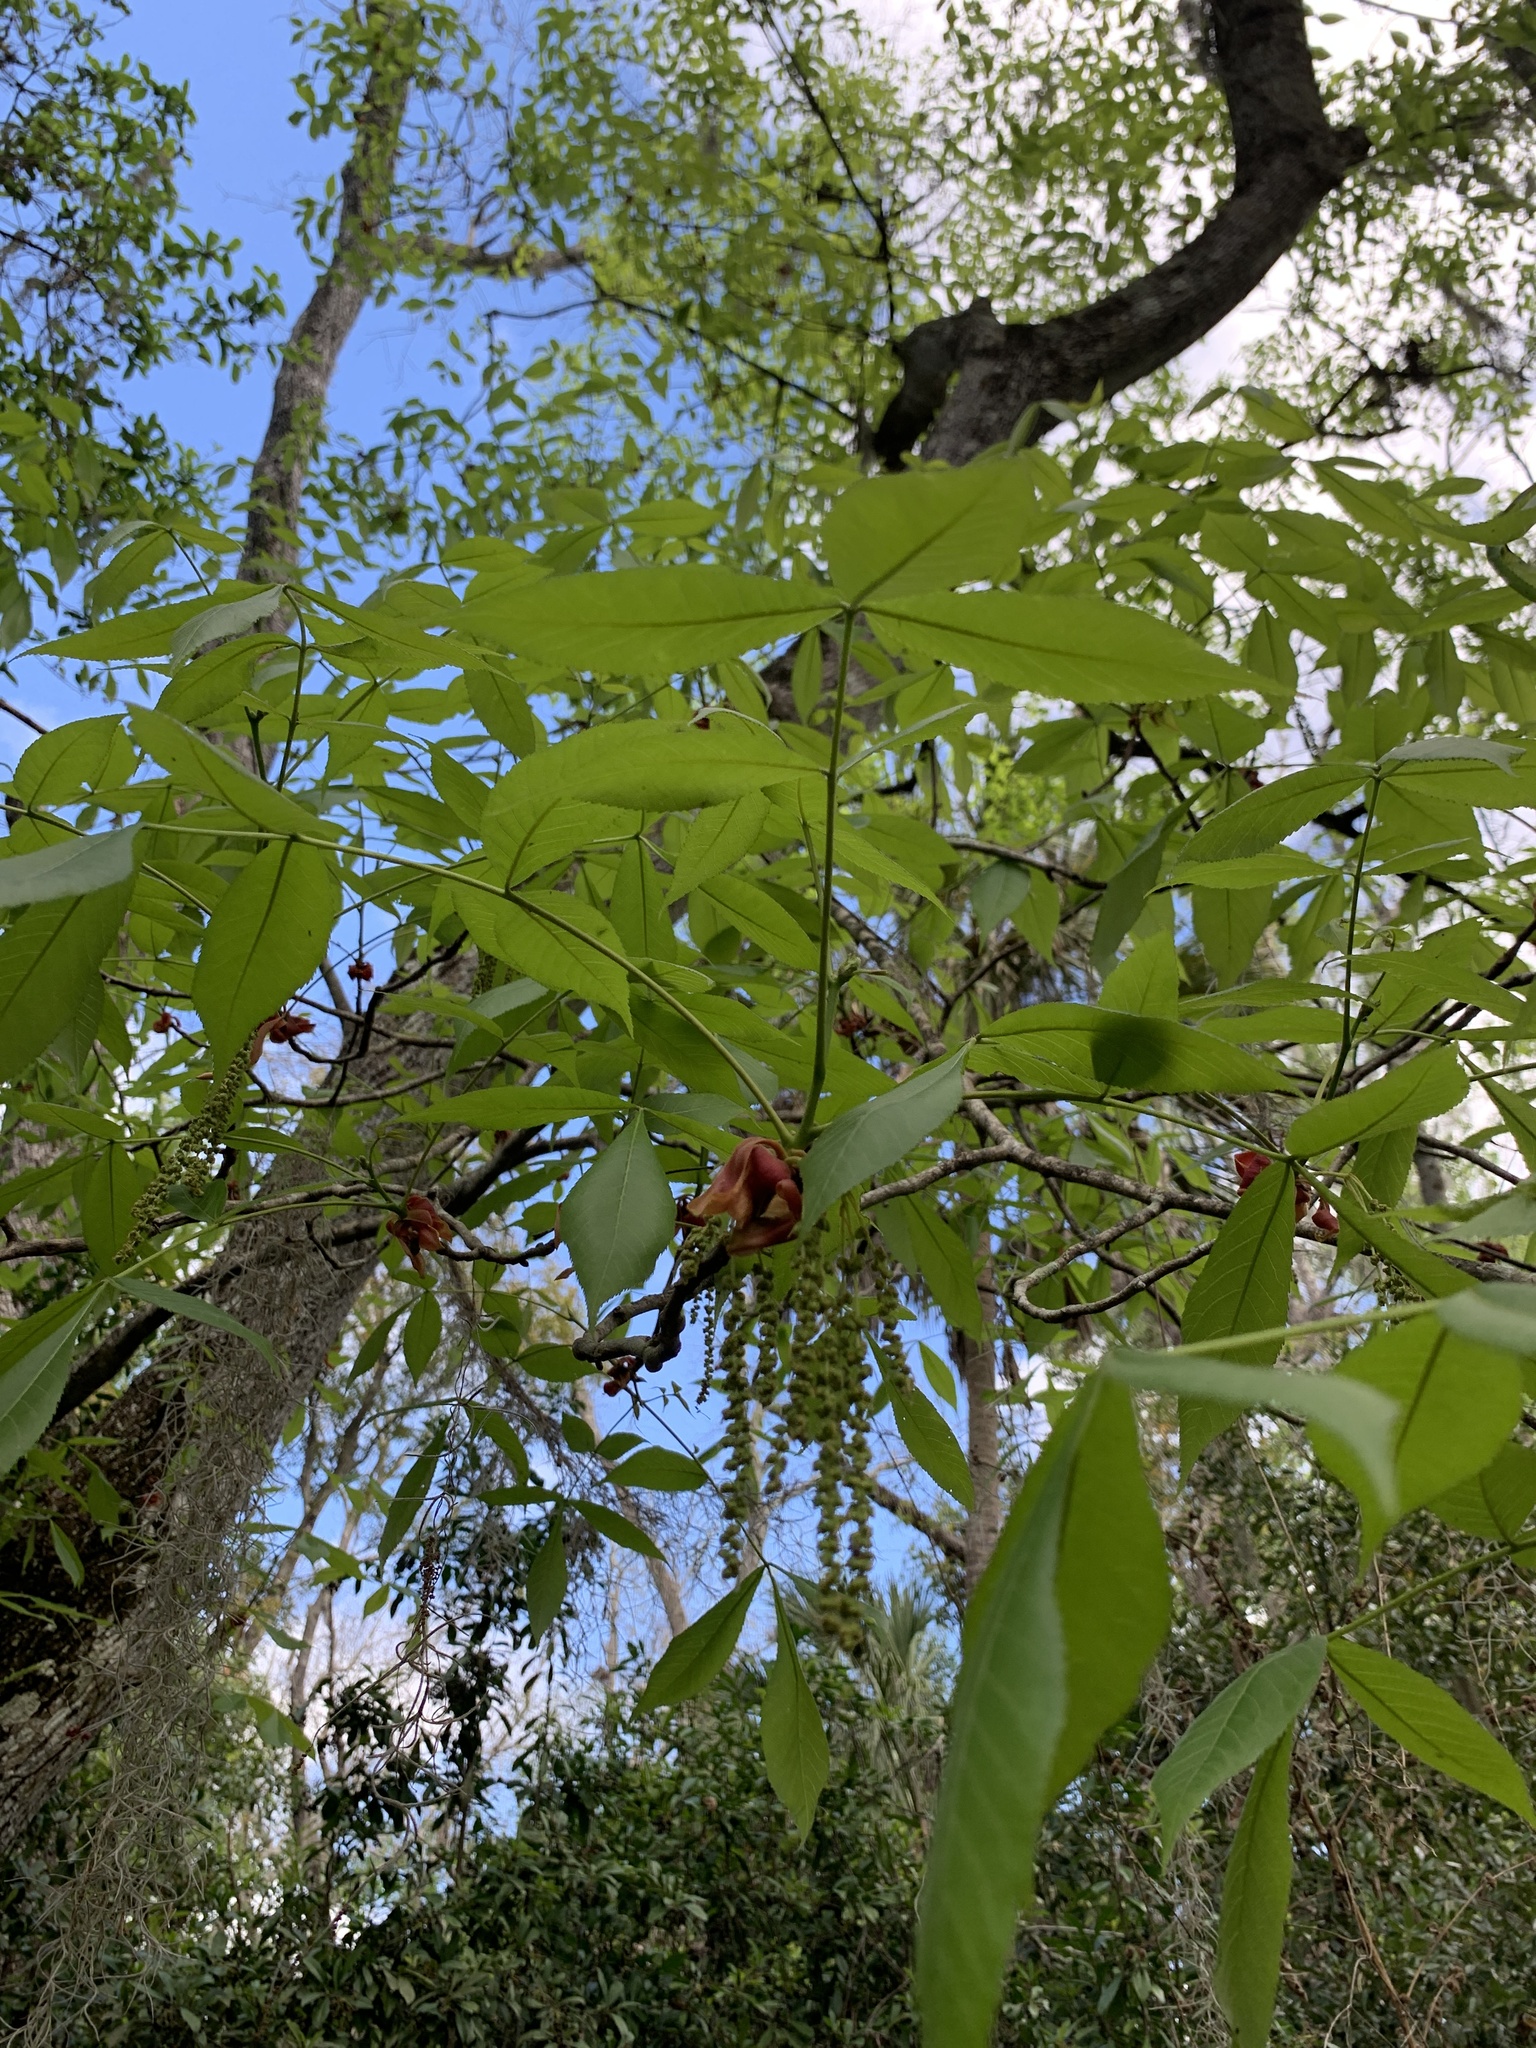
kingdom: Plantae
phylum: Tracheophyta
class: Magnoliopsida
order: Fagales
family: Juglandaceae
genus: Carya
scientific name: Carya glabra
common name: Pignut hickory
